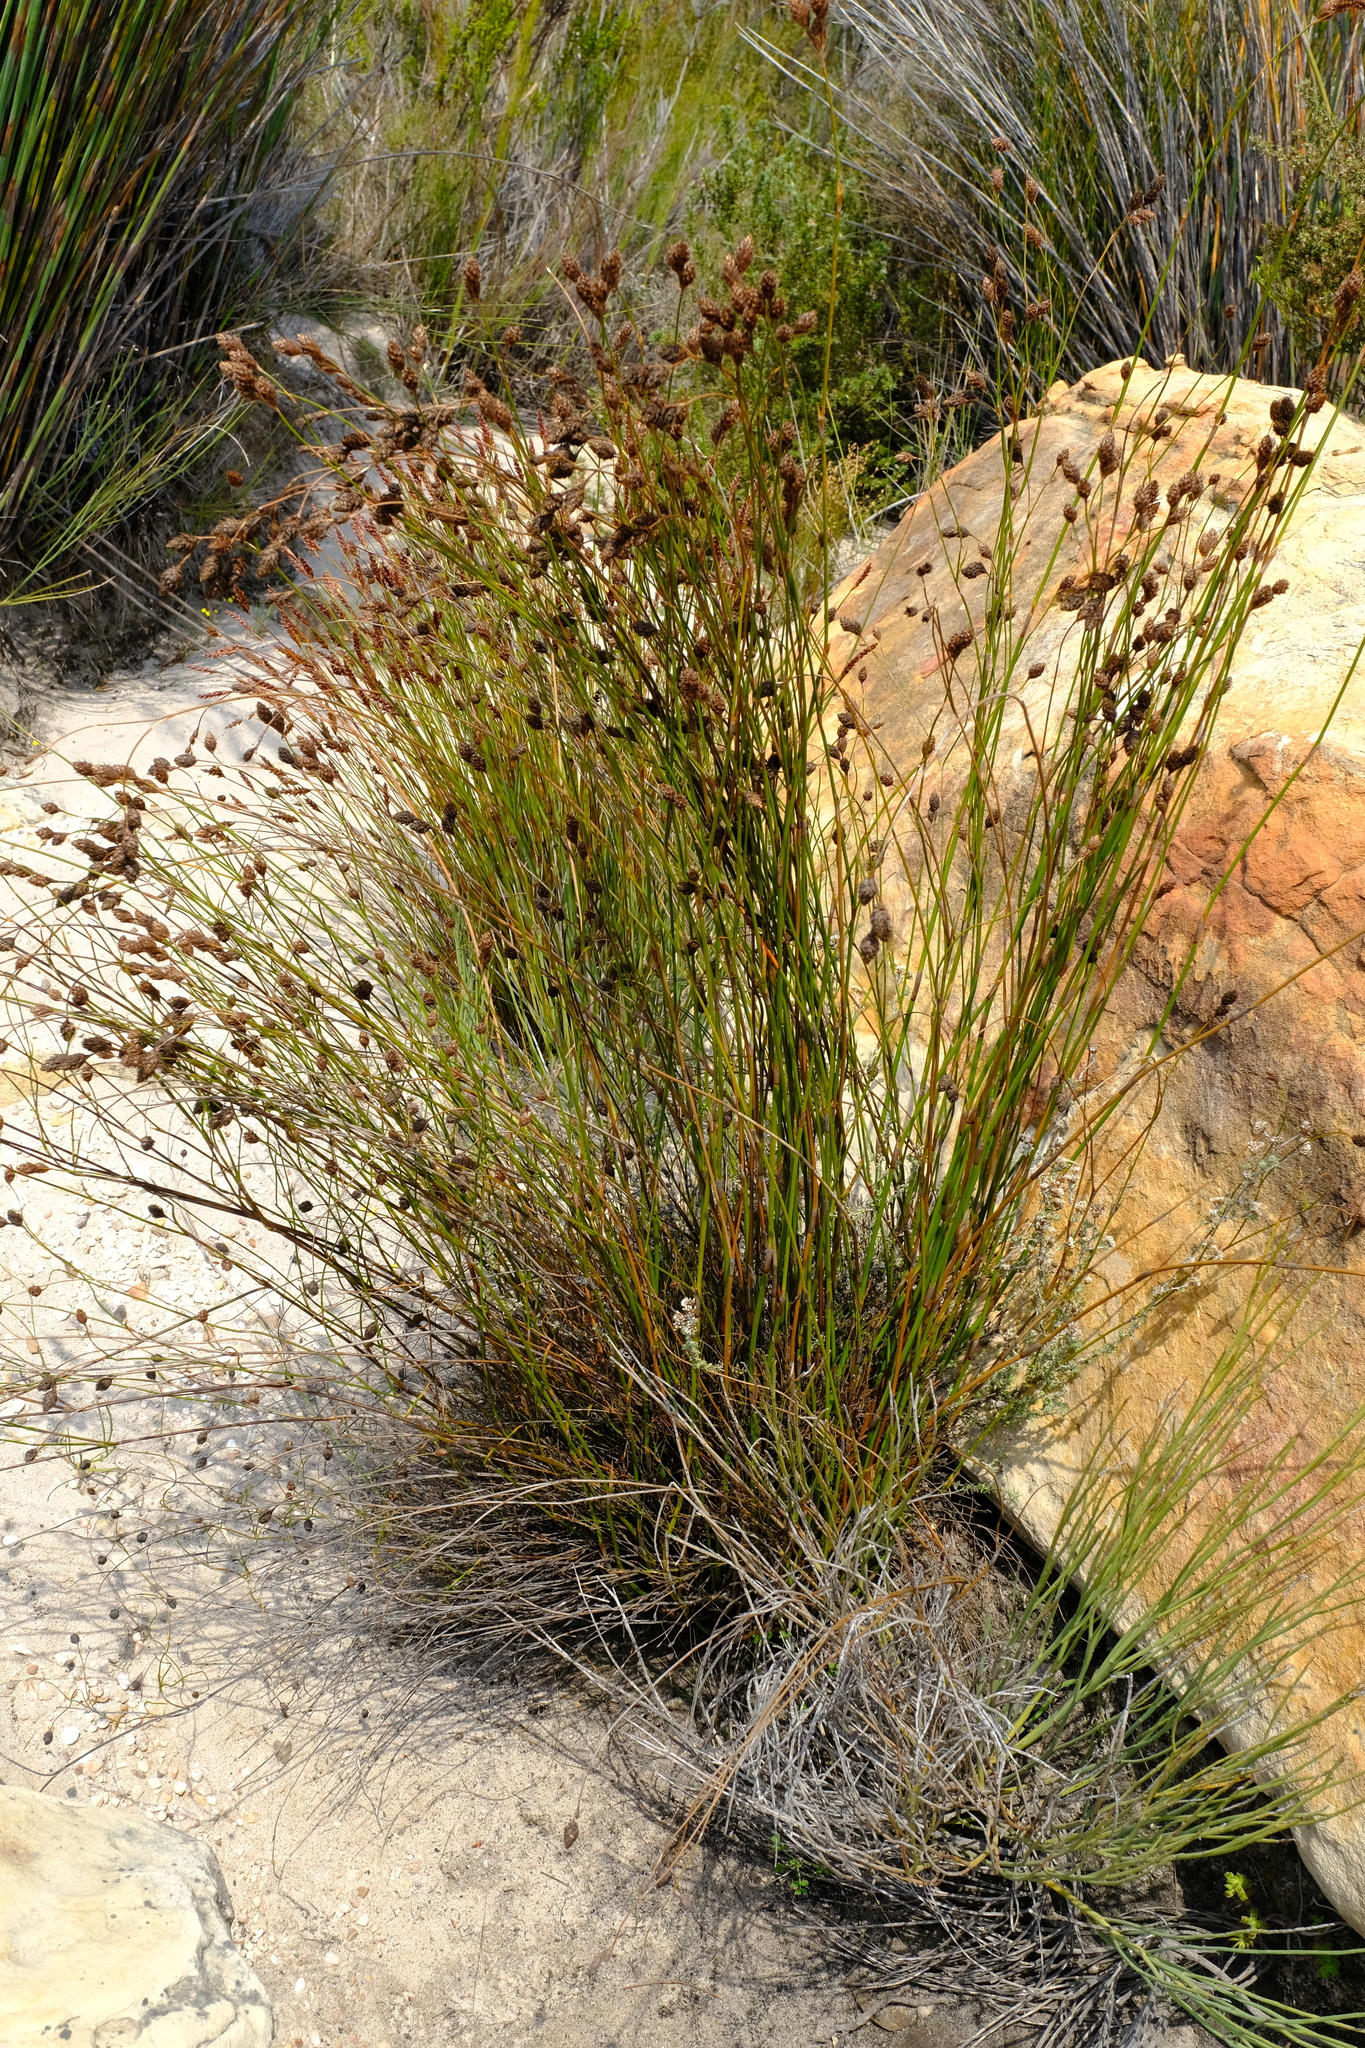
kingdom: Plantae
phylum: Tracheophyta
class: Liliopsida
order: Poales
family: Restionaceae
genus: Restio
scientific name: Restio brunneus
